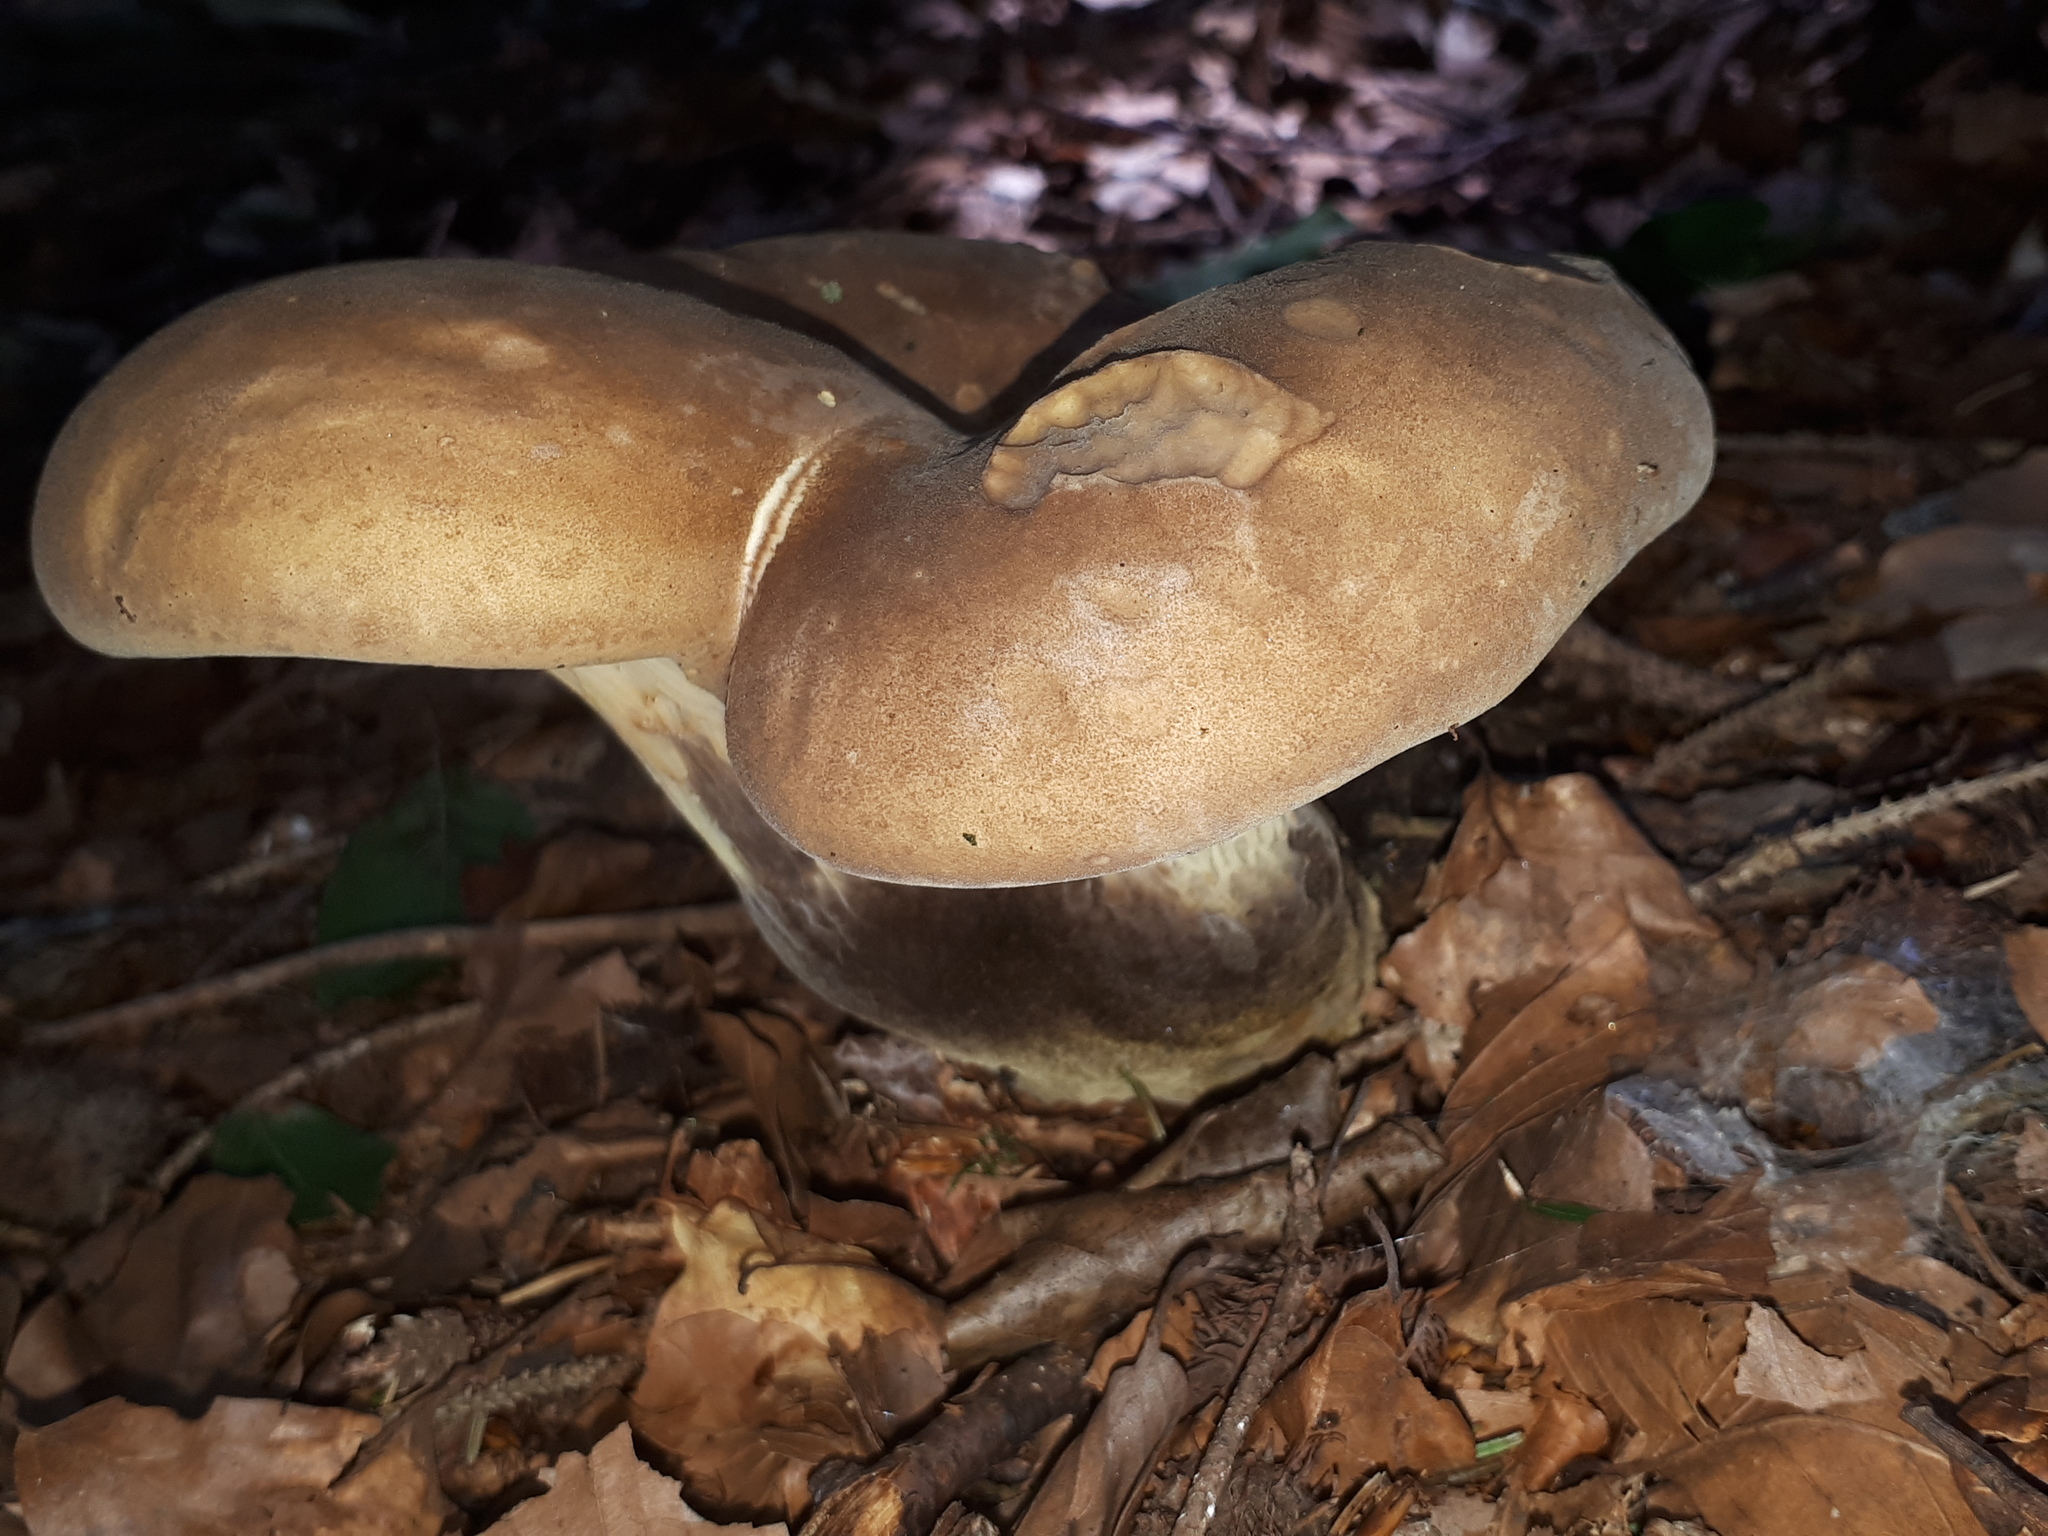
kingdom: Fungi
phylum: Basidiomycota
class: Agaricomycetes
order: Boletales
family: Tapinellaceae
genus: Tapinella
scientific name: Tapinella atrotomentosa
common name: Velvet rollrim
